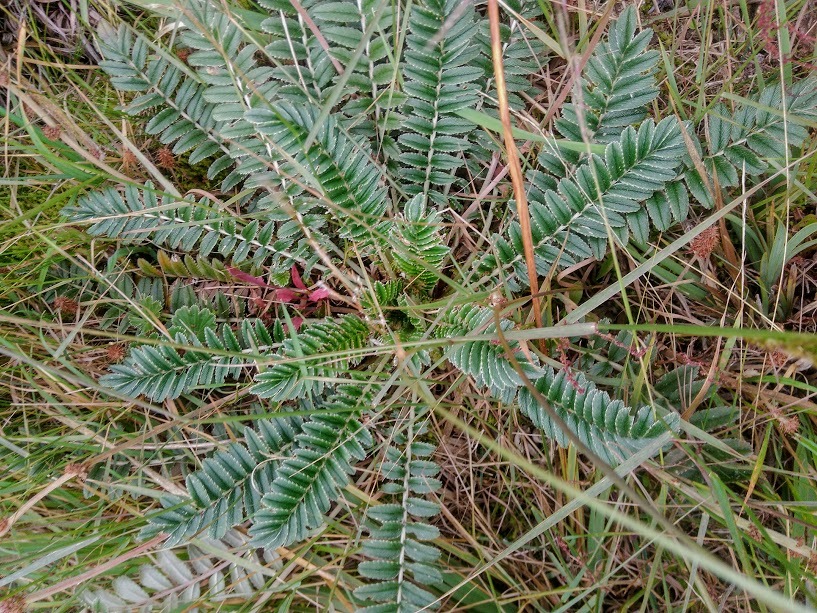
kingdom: Plantae
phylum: Tracheophyta
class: Magnoliopsida
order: Rosales
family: Rosaceae
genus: Acaena
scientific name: Acaena cylindristachya
